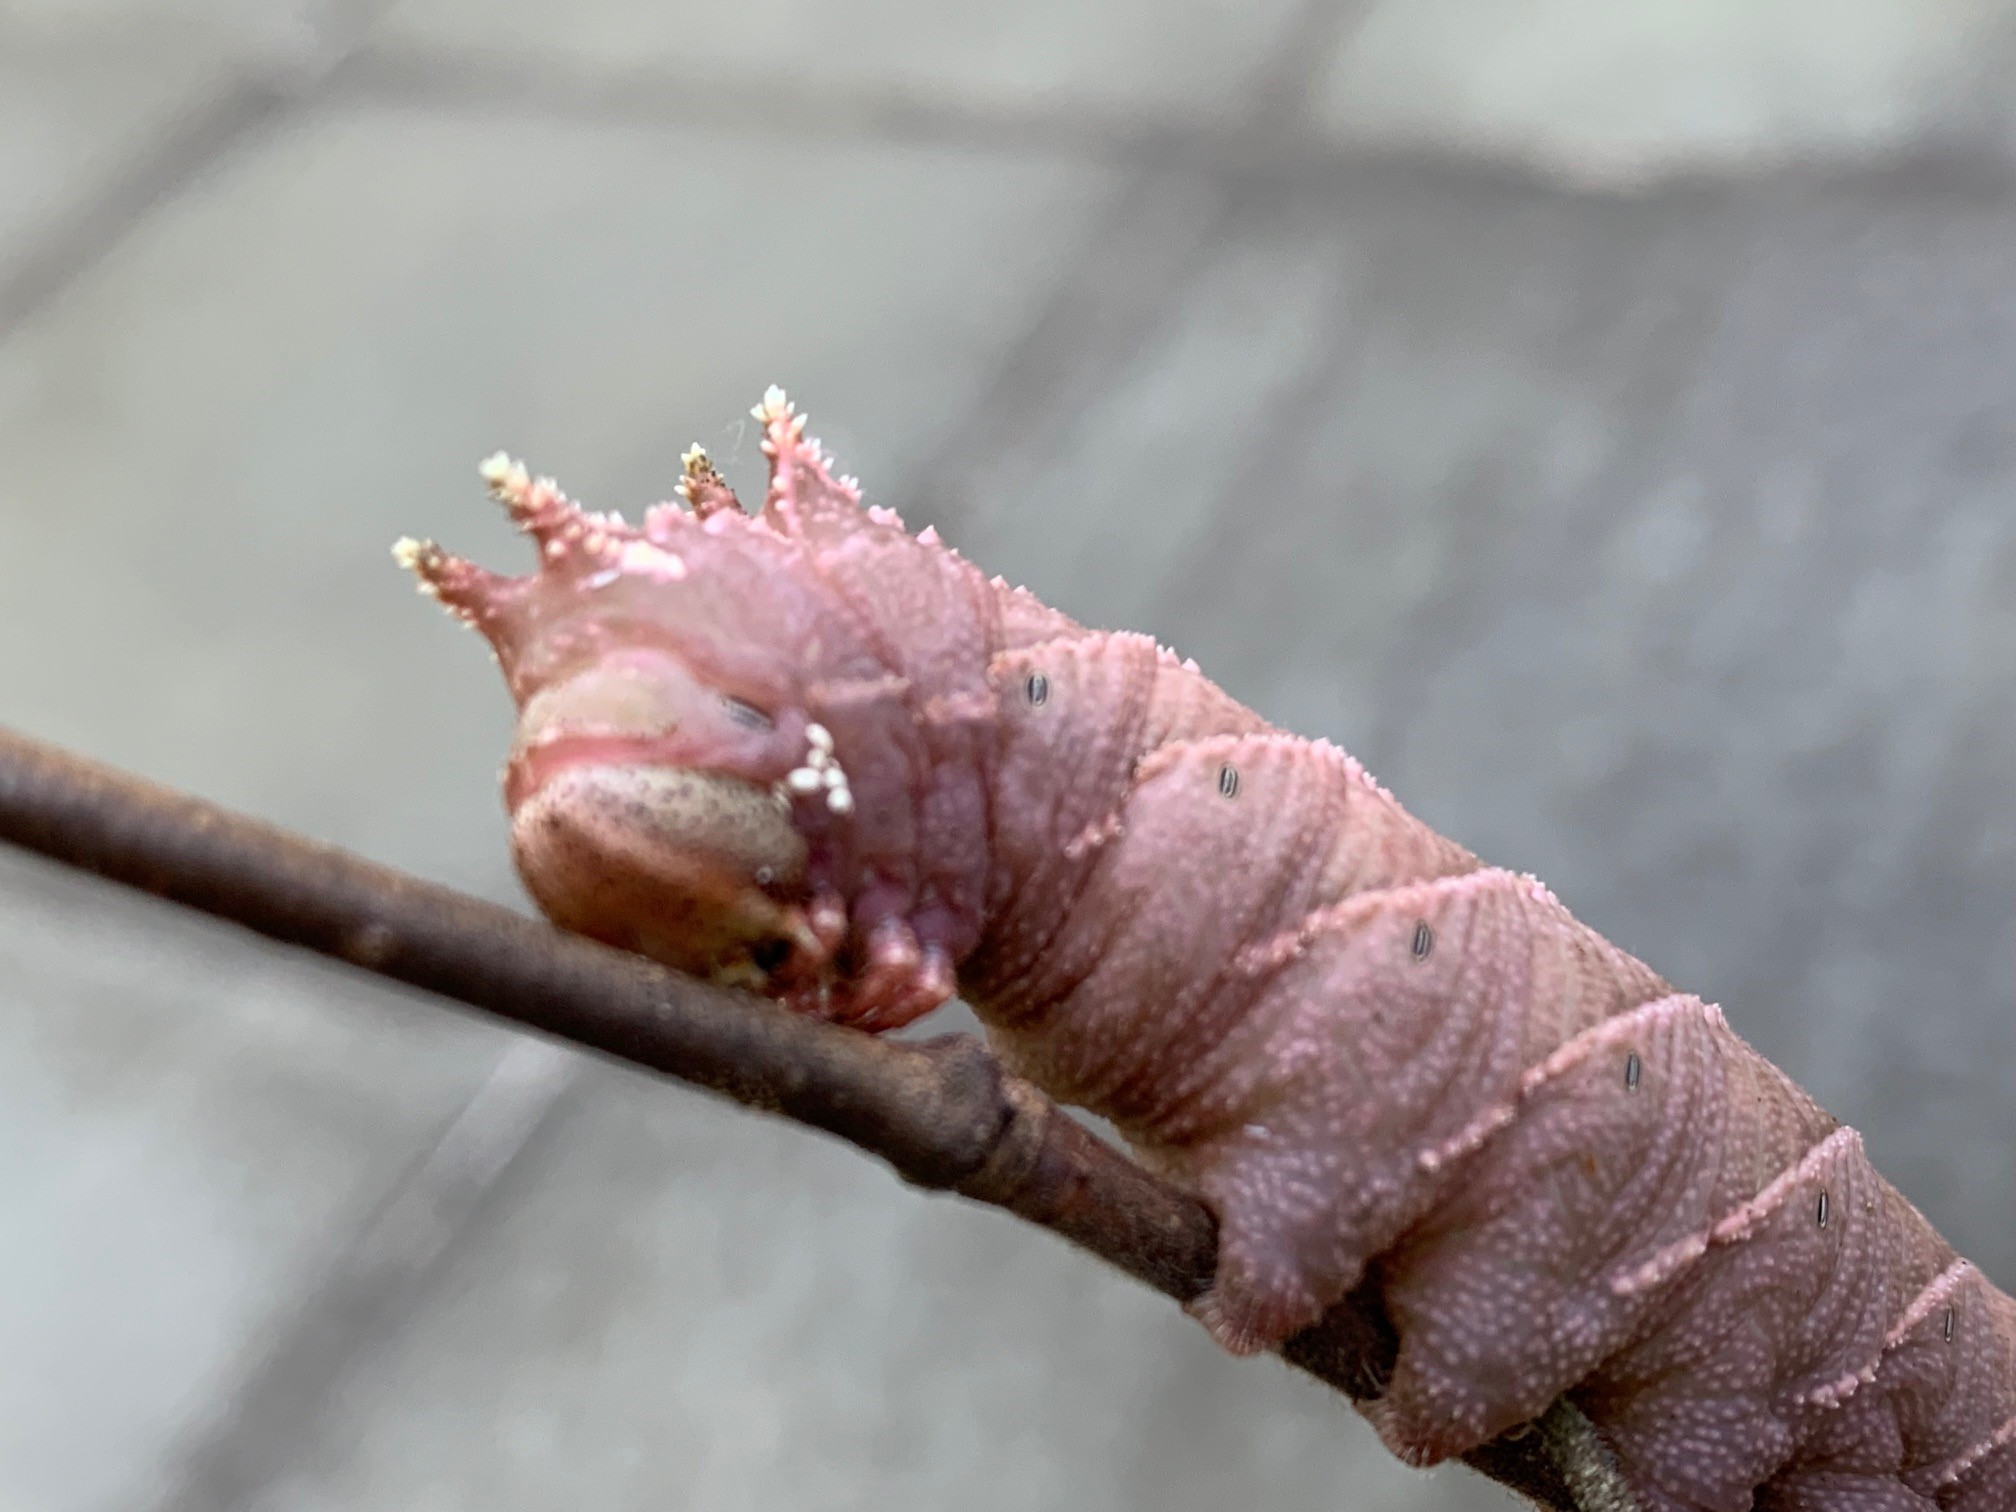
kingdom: Animalia
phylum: Arthropoda
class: Insecta
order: Lepidoptera
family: Sphingidae
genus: Ceratomia
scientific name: Ceratomia amyntor
